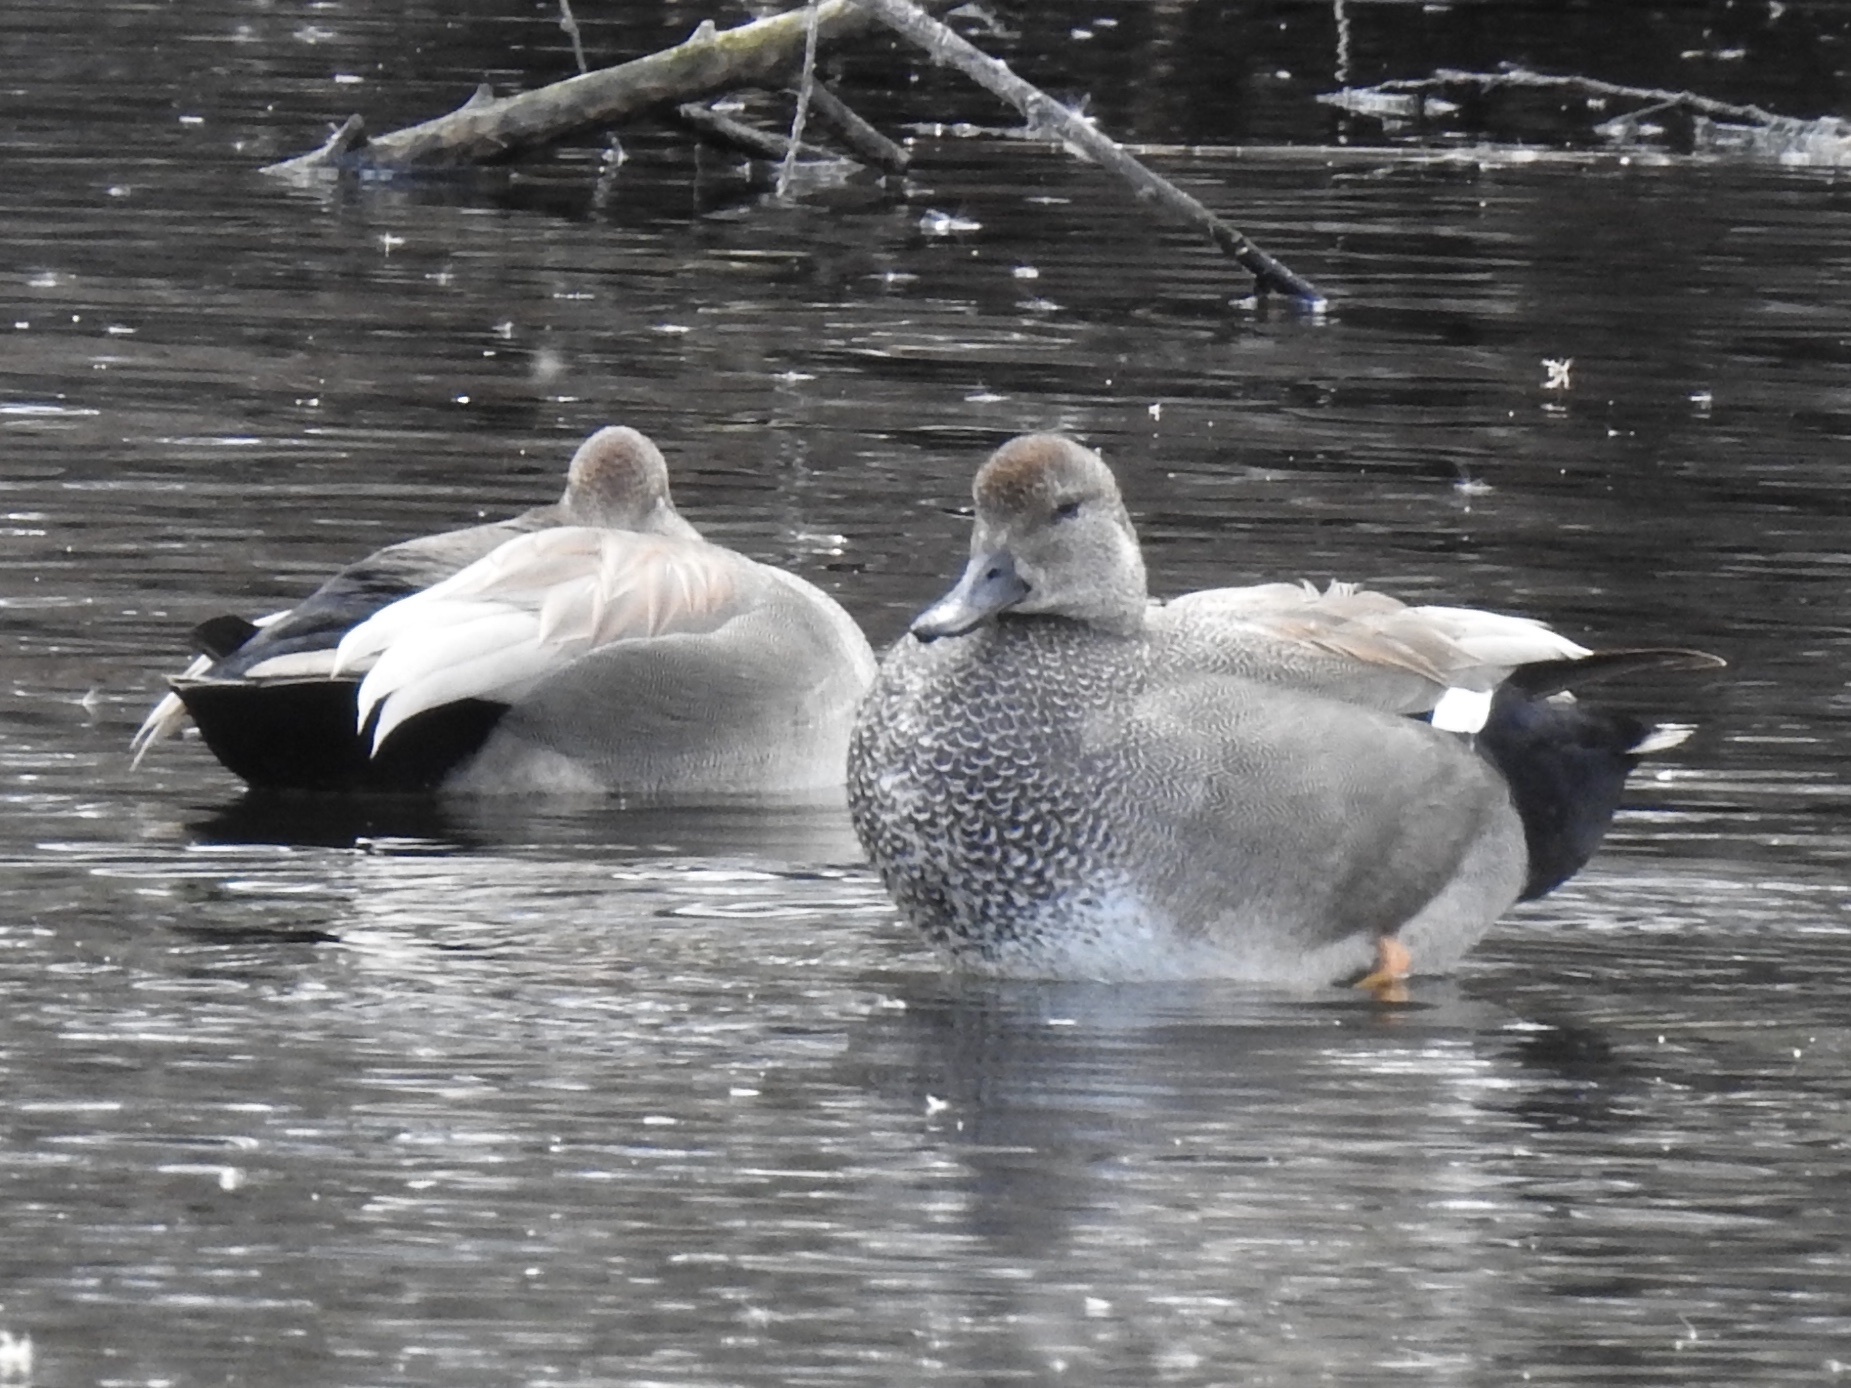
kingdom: Animalia
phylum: Chordata
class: Aves
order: Anseriformes
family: Anatidae
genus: Mareca
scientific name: Mareca strepera
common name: Gadwall
